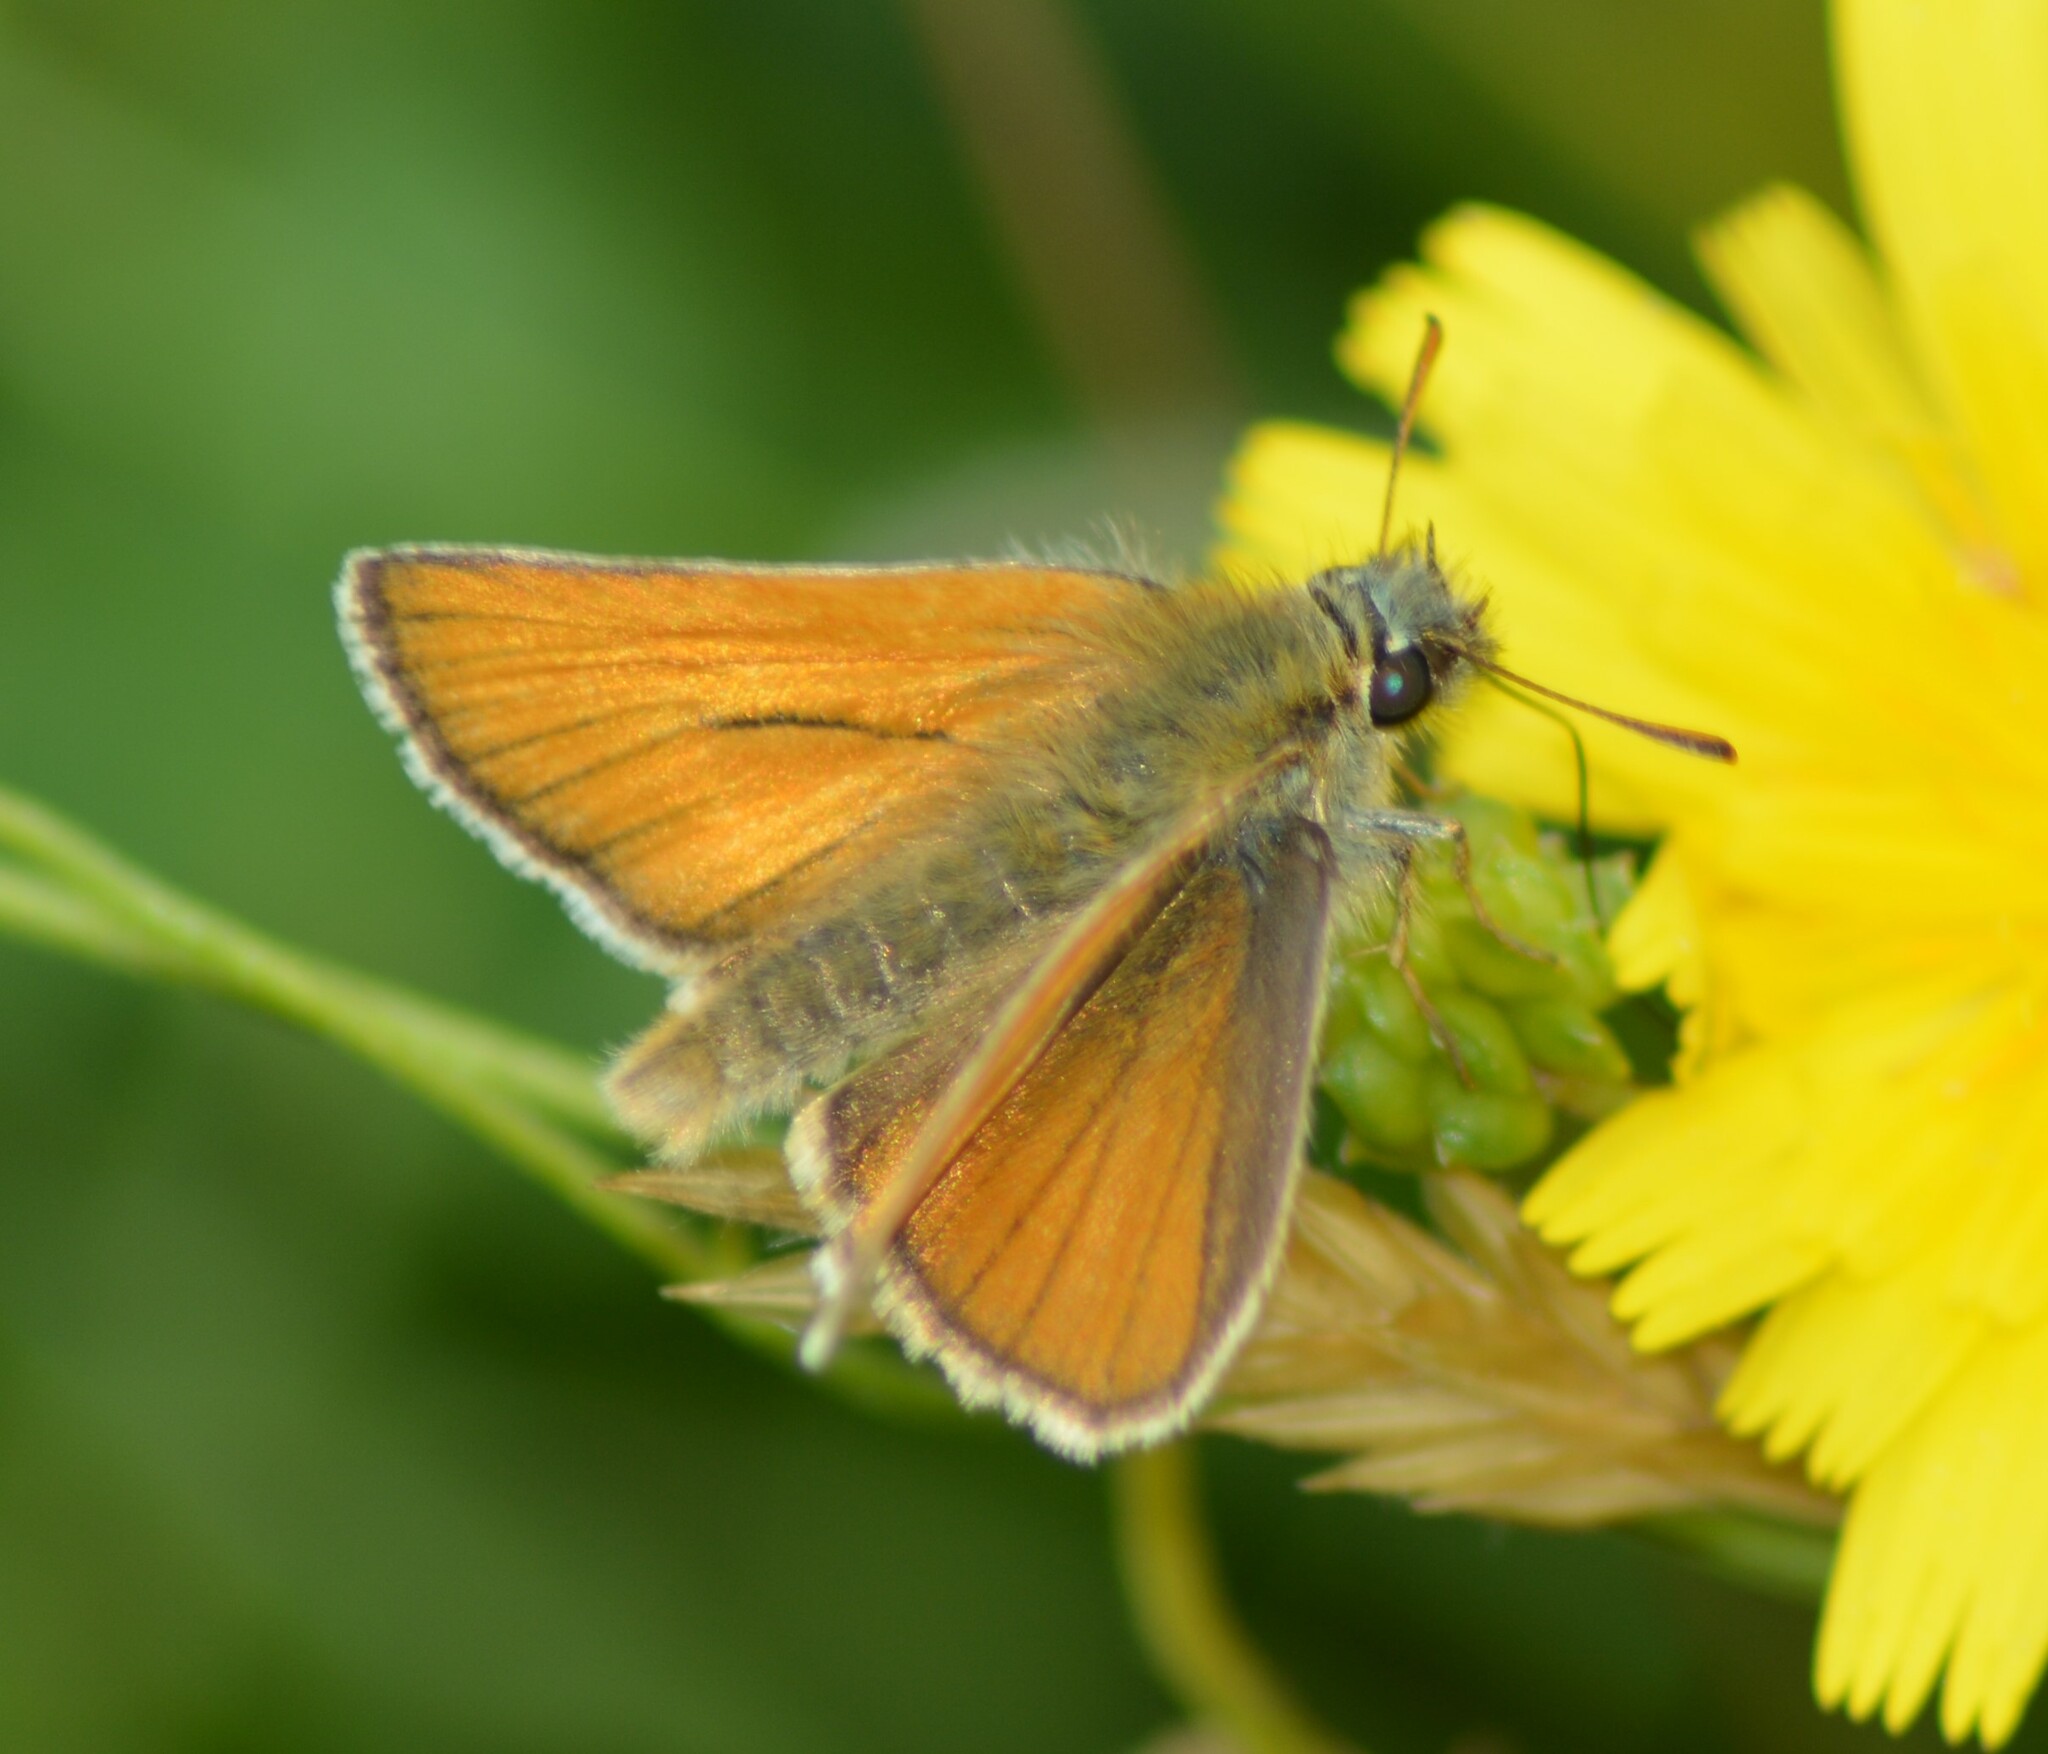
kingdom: Animalia
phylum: Arthropoda
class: Insecta
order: Lepidoptera
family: Hesperiidae
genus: Thymelicus
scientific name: Thymelicus sylvestris
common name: Small skipper
